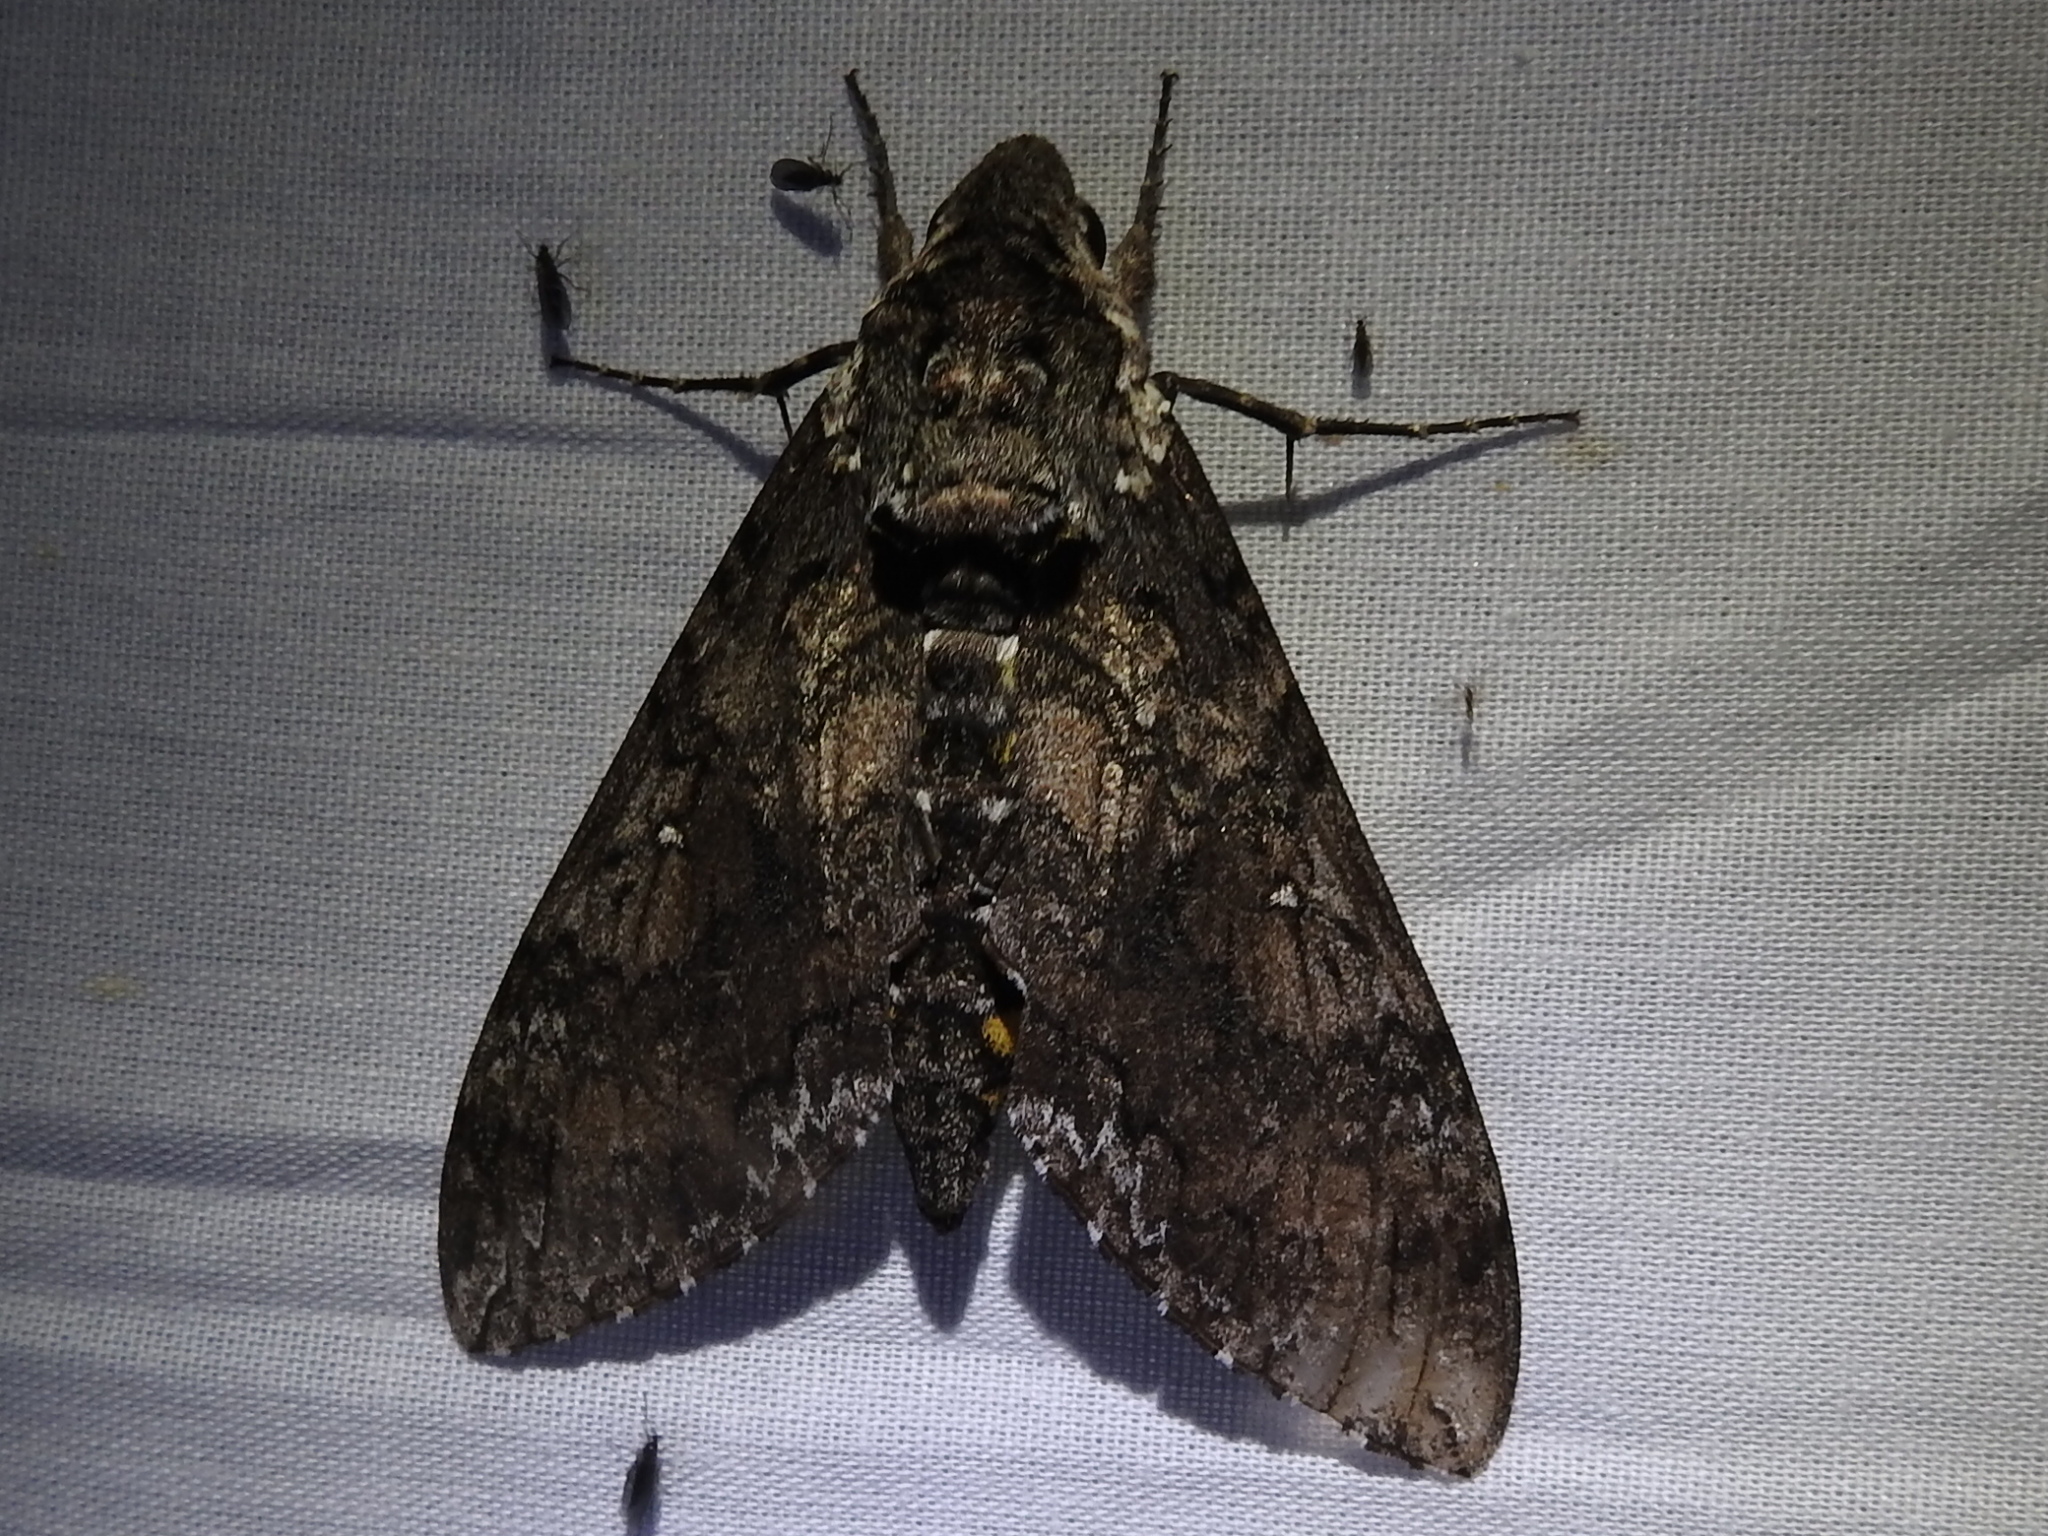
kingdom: Animalia
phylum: Arthropoda
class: Insecta
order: Lepidoptera
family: Sphingidae
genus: Manduca
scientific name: Manduca sexta
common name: Carolina sphinx
